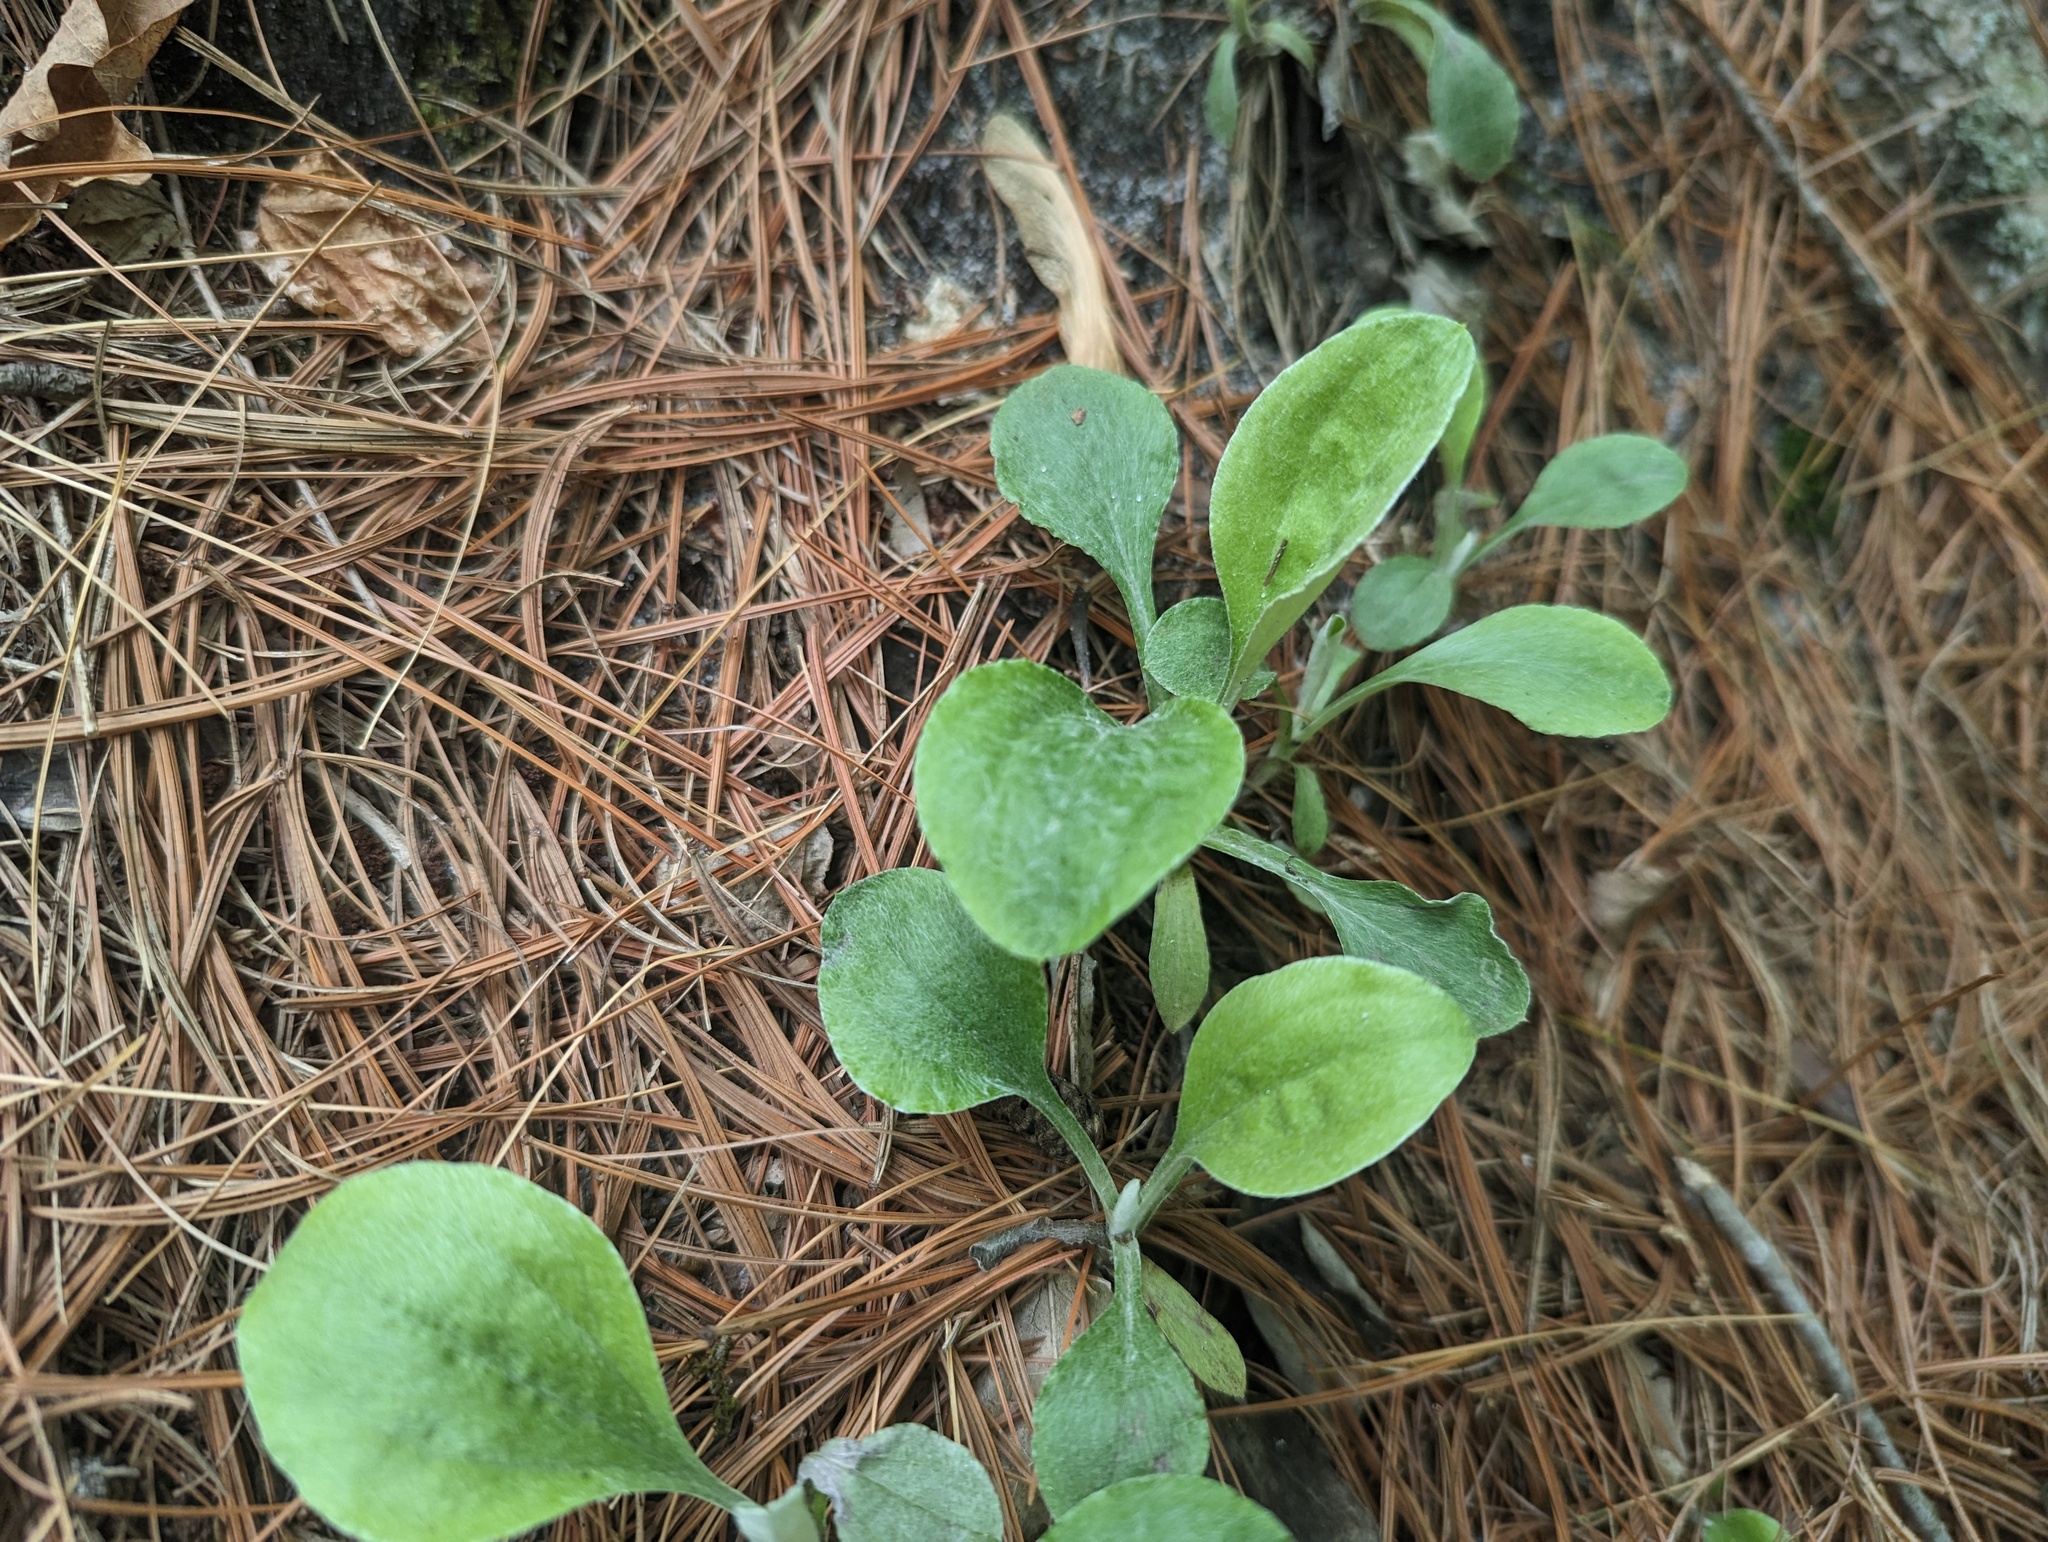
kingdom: Plantae
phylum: Tracheophyta
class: Magnoliopsida
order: Asterales
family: Asteraceae
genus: Antennaria
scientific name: Antennaria plantaginifolia
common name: Plantain-leaved pussytoes
